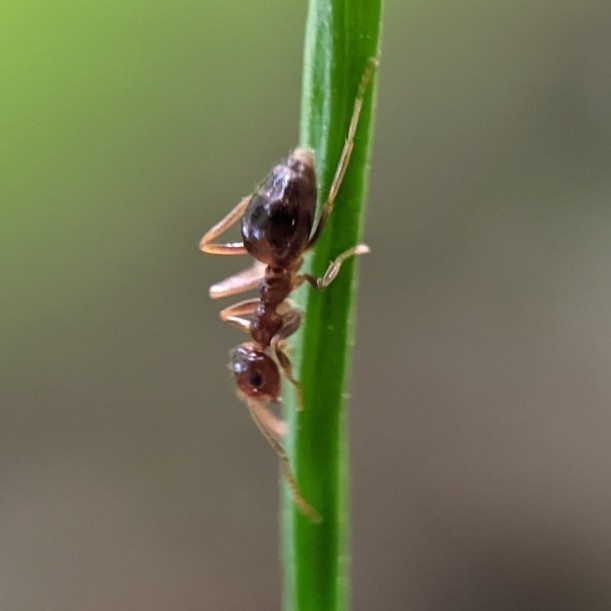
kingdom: Animalia
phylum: Arthropoda
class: Insecta
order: Hymenoptera
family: Formicidae
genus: Prenolepis
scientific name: Prenolepis imparis
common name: Small honey ant
